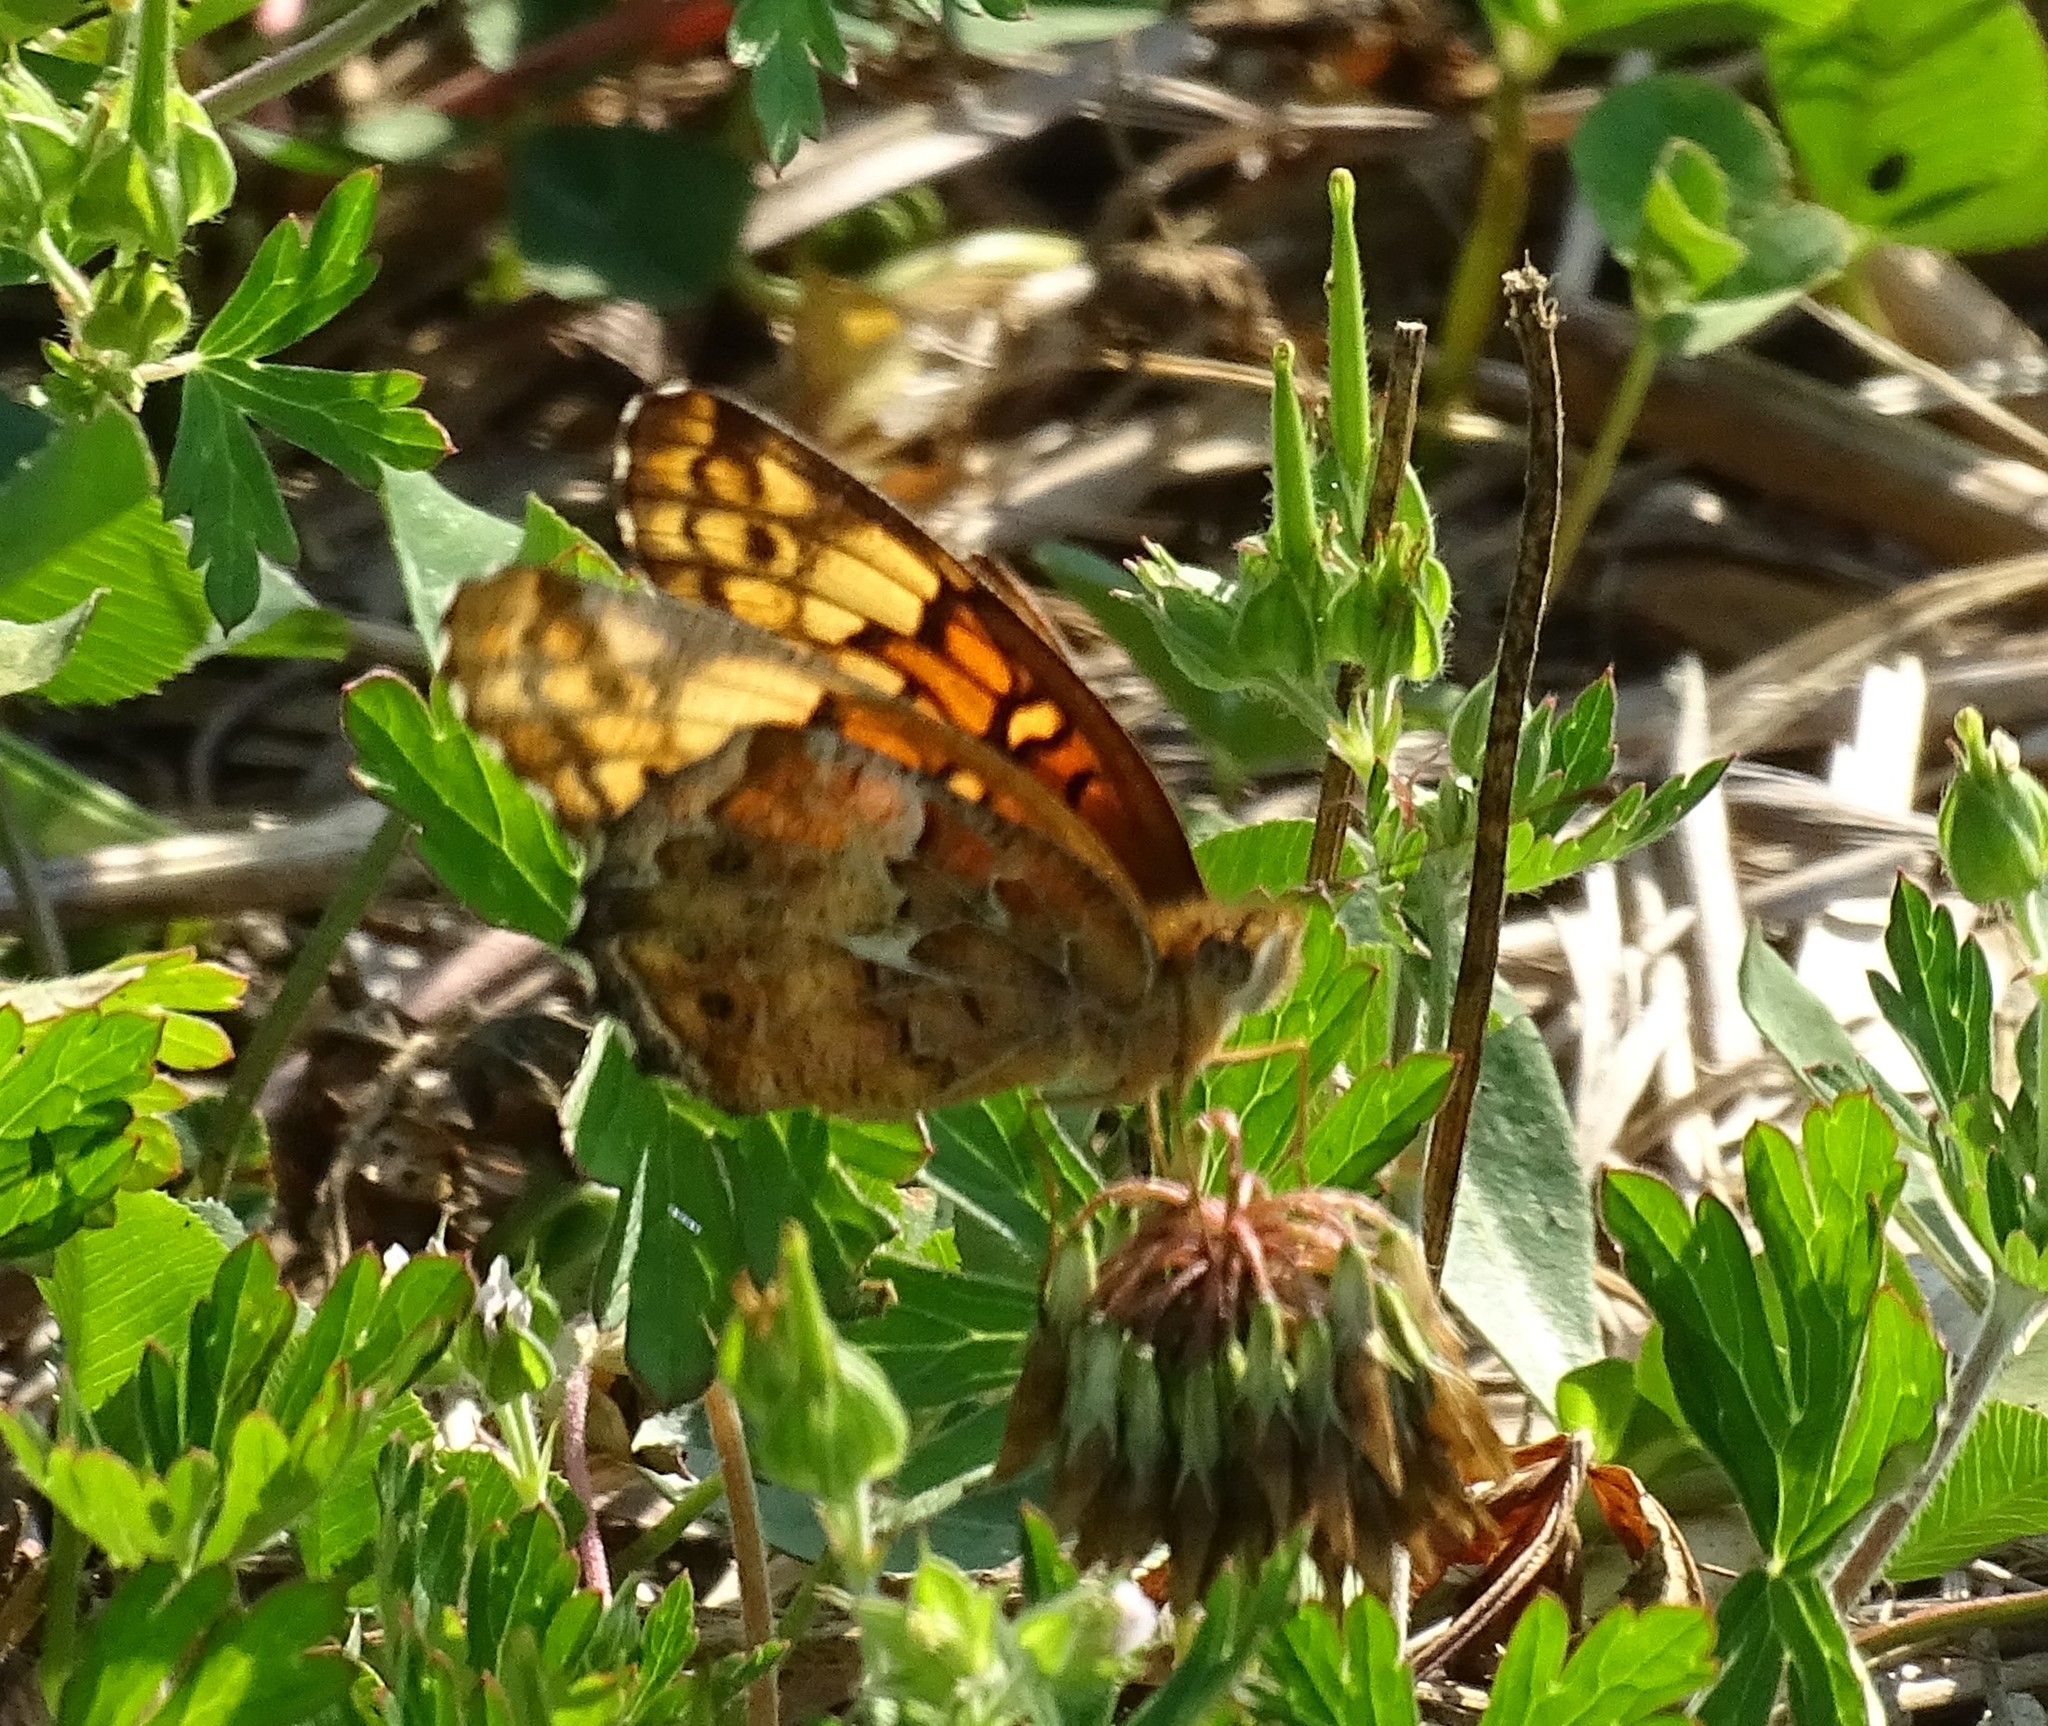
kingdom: Animalia
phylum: Arthropoda
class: Insecta
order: Lepidoptera
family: Nymphalidae
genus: Euptoieta
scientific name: Euptoieta claudia
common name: Variegated fritillary
